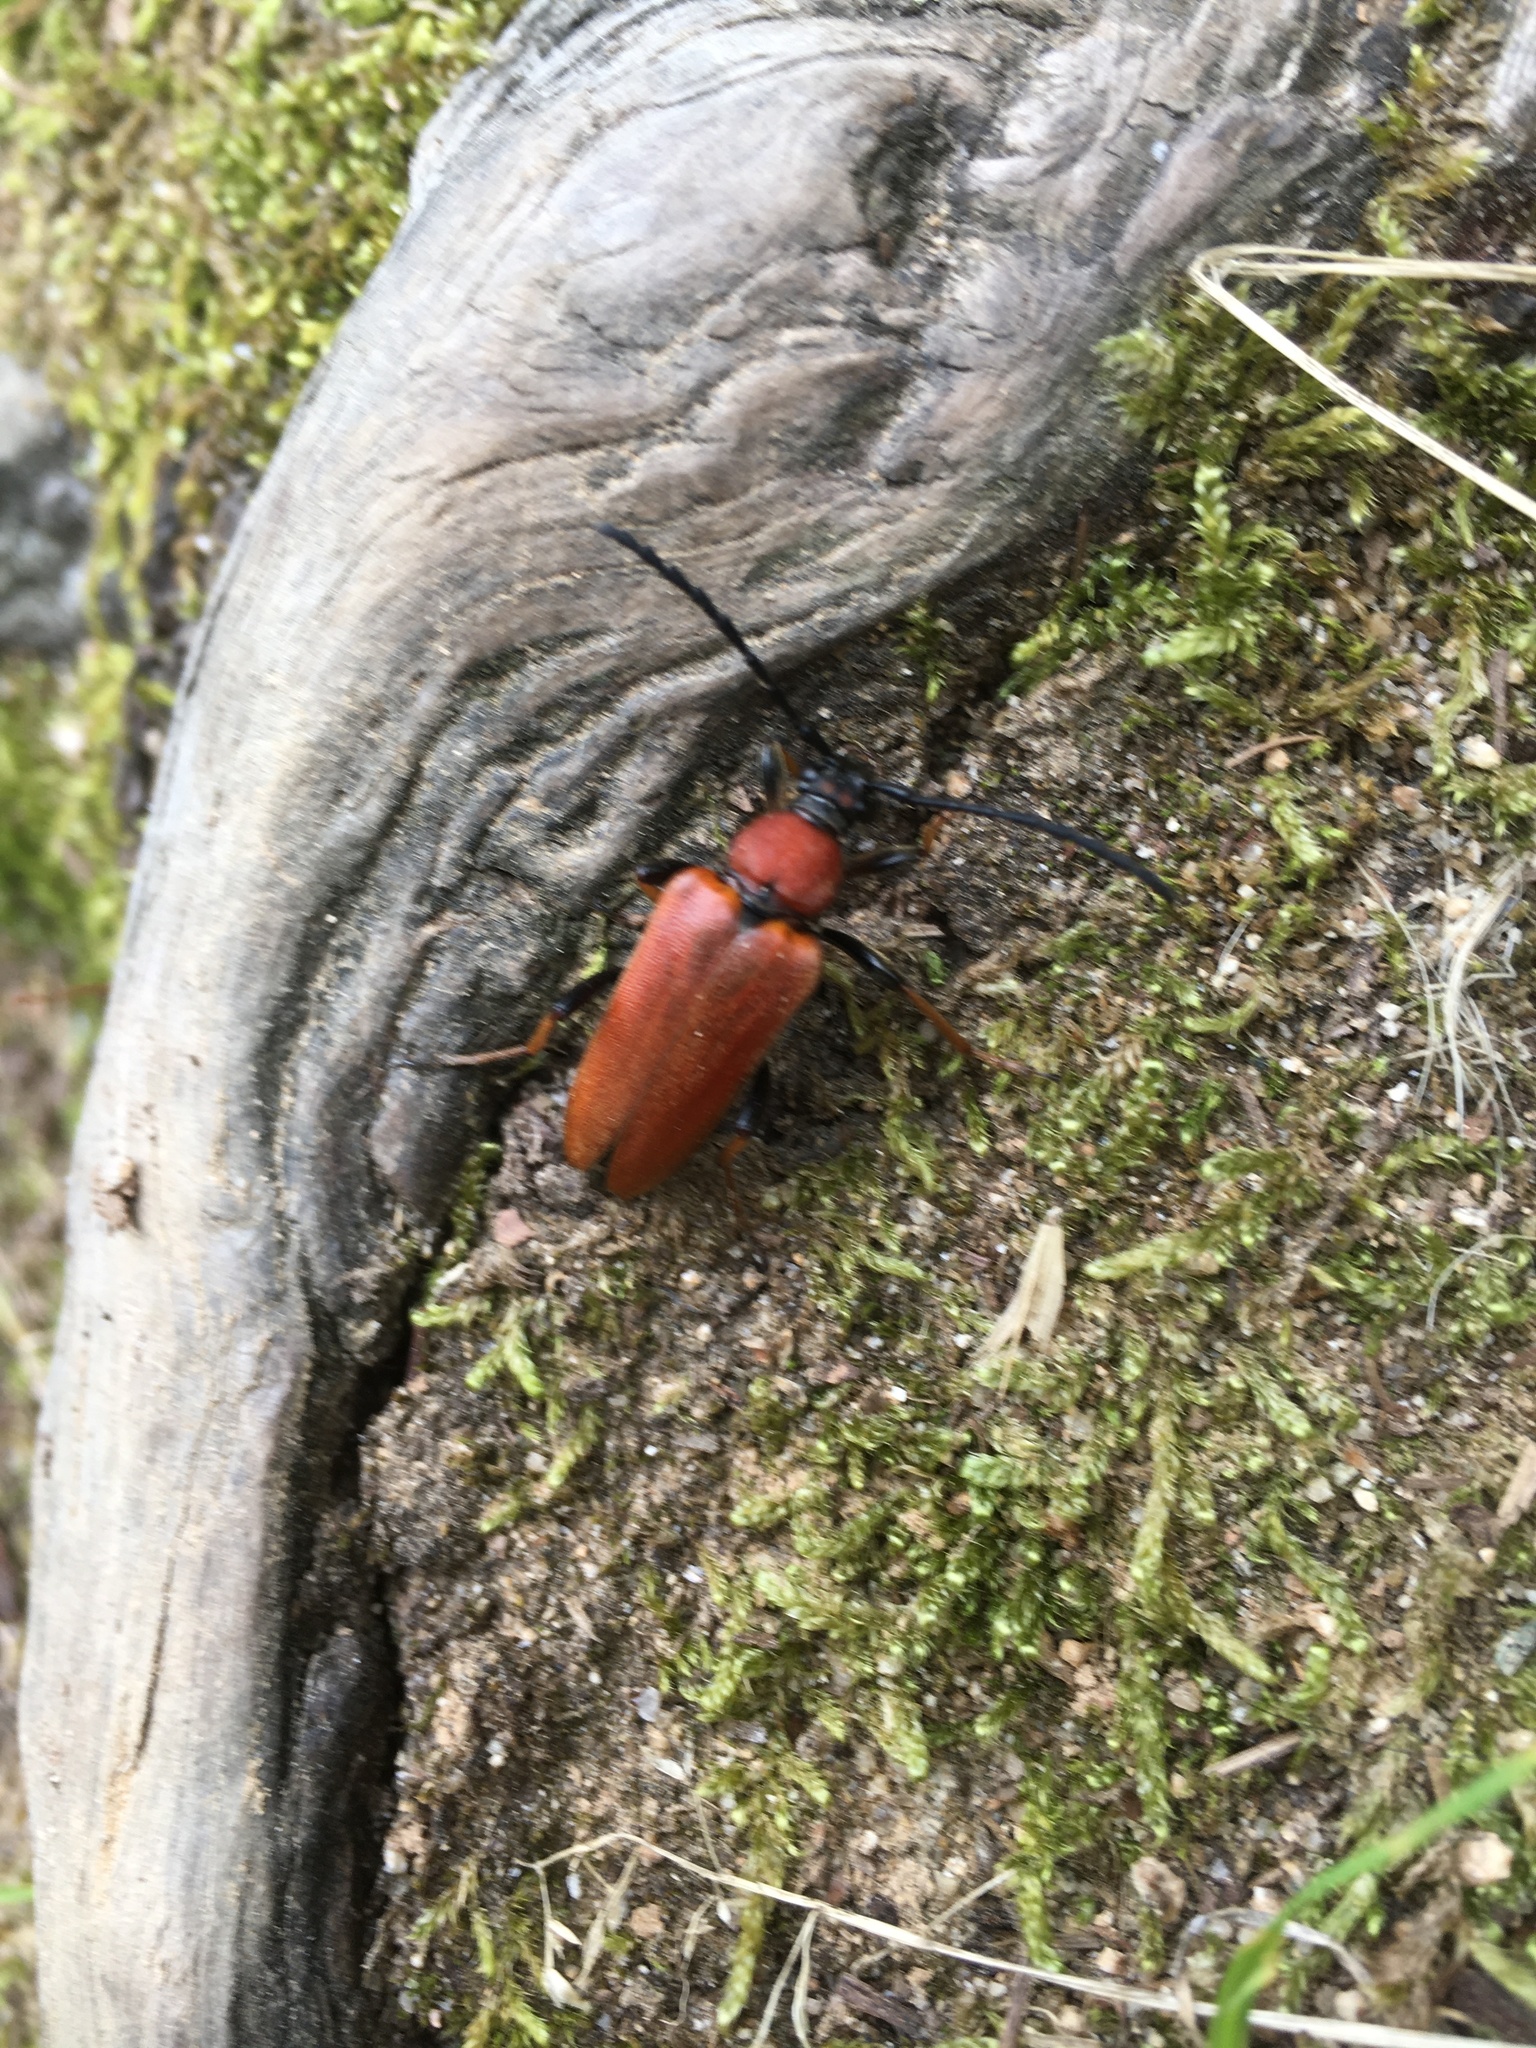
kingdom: Animalia
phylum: Arthropoda
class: Insecta
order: Coleoptera
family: Cerambycidae
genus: Stictoleptura
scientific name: Stictoleptura rubra
